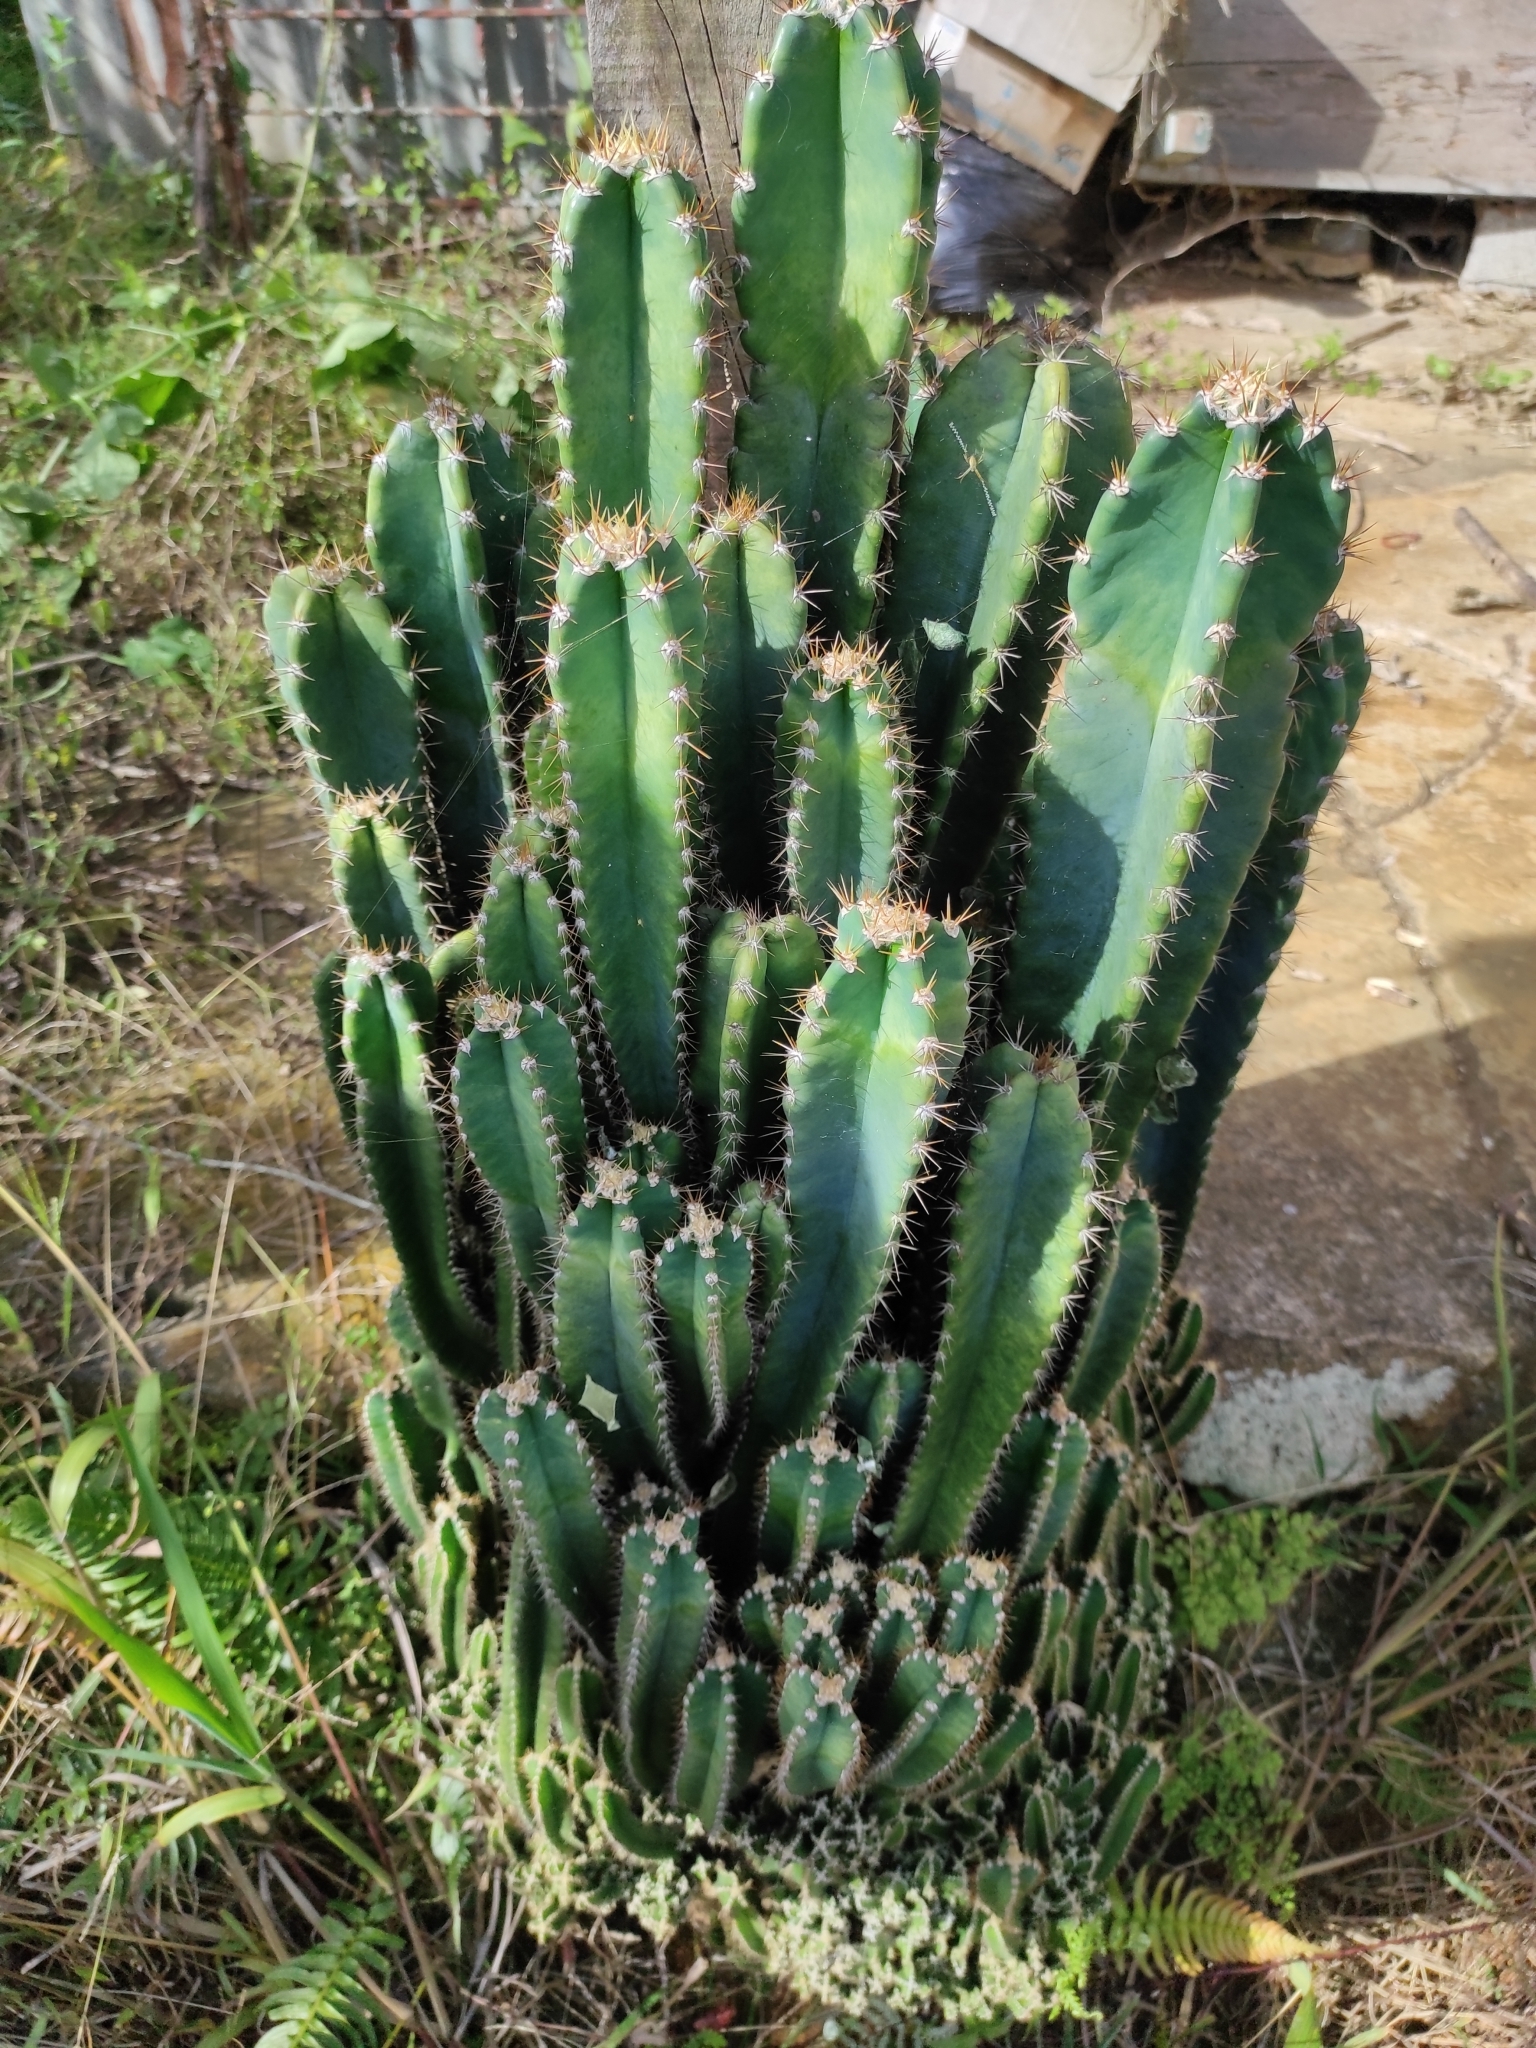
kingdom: Plantae
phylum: Tracheophyta
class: Magnoliopsida
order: Caryophyllales
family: Cactaceae
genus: Cereus
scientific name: Cereus jamacaru
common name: Queen-of-the-night
